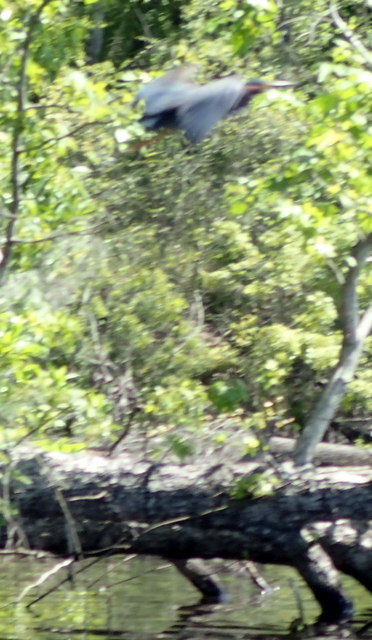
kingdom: Animalia
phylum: Chordata
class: Aves
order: Pelecaniformes
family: Ardeidae
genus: Butorides
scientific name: Butorides virescens
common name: Green heron
